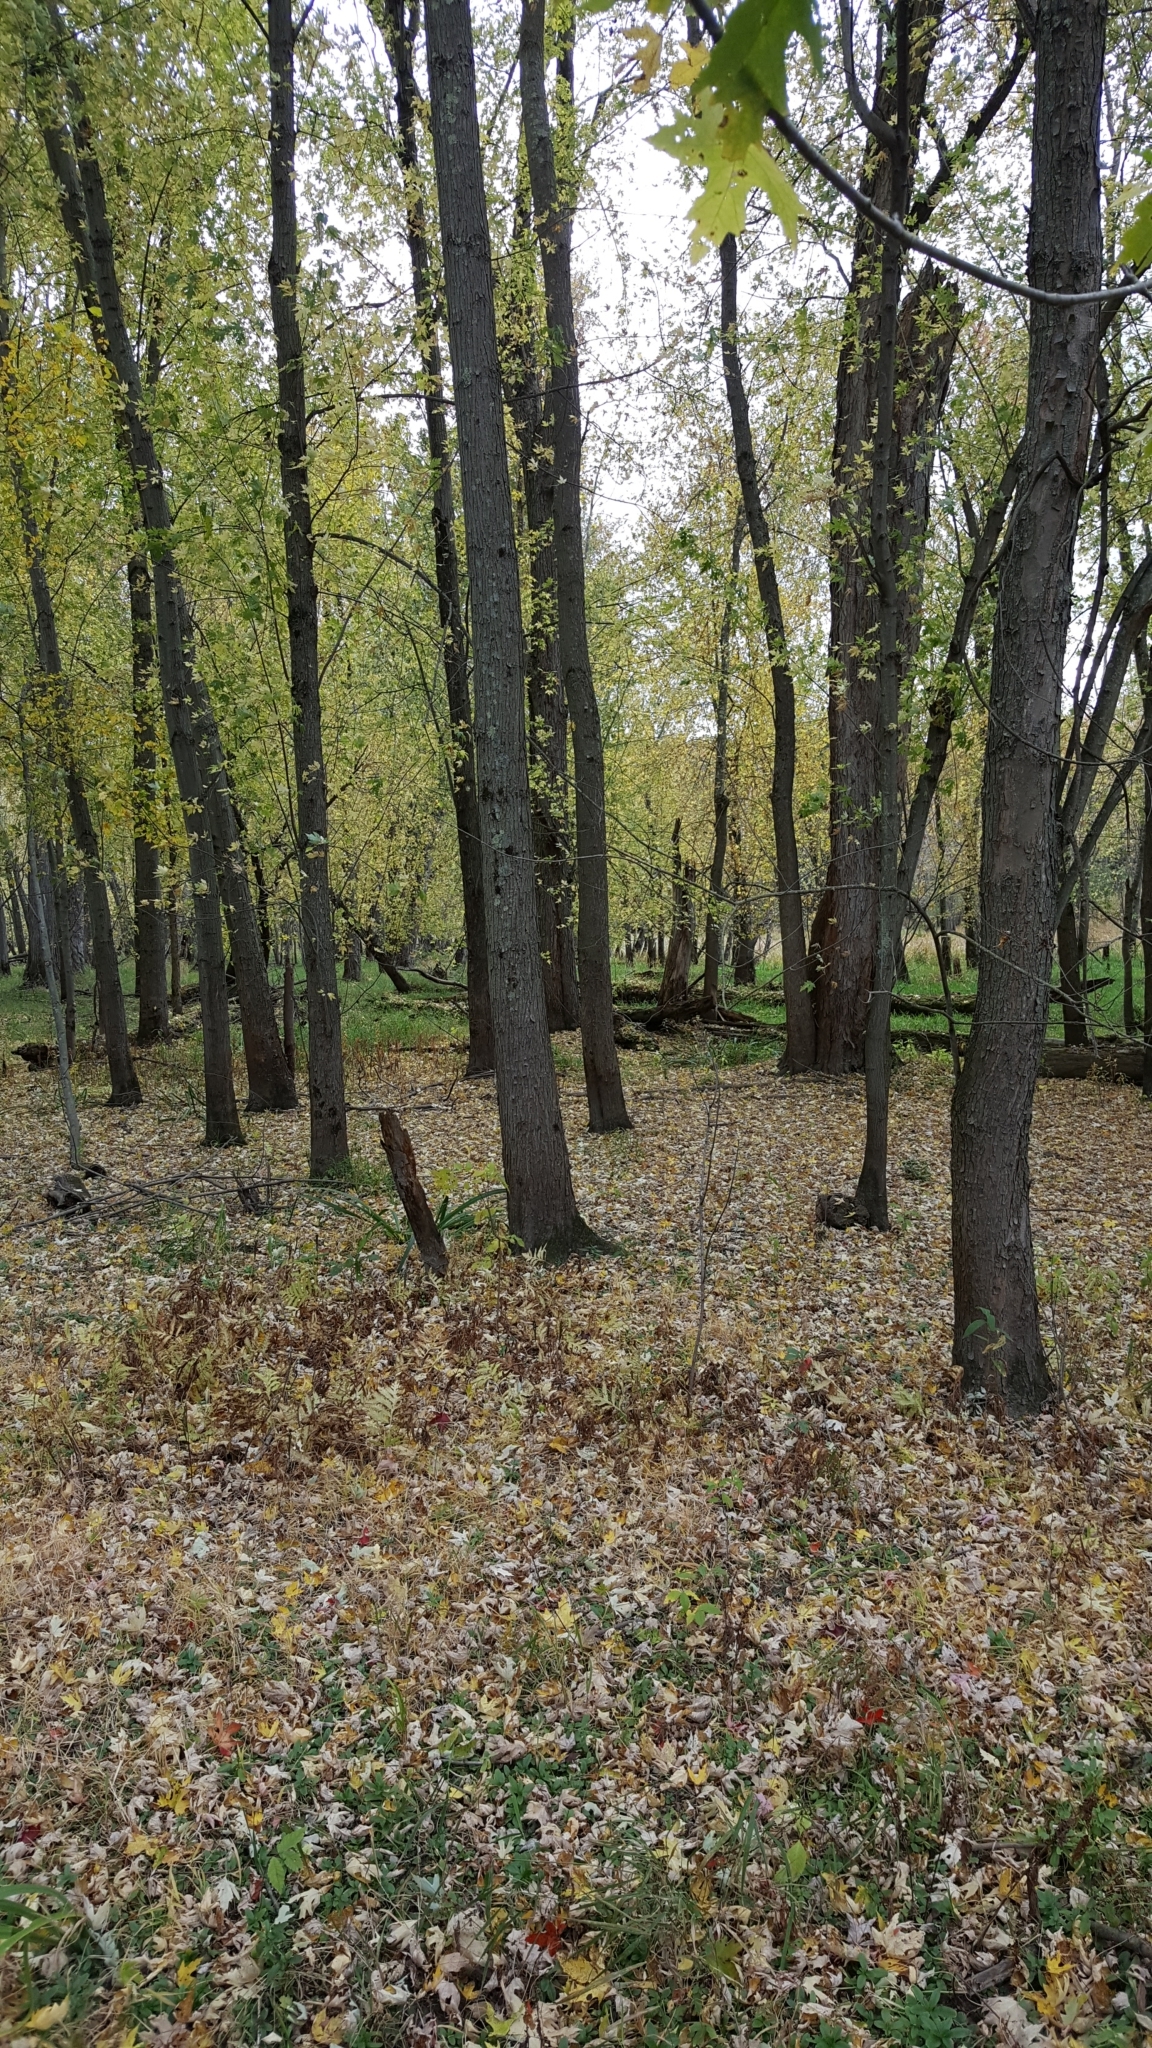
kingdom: Plantae
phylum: Tracheophyta
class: Magnoliopsida
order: Sapindales
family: Sapindaceae
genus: Acer
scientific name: Acer saccharinum
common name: Silver maple
